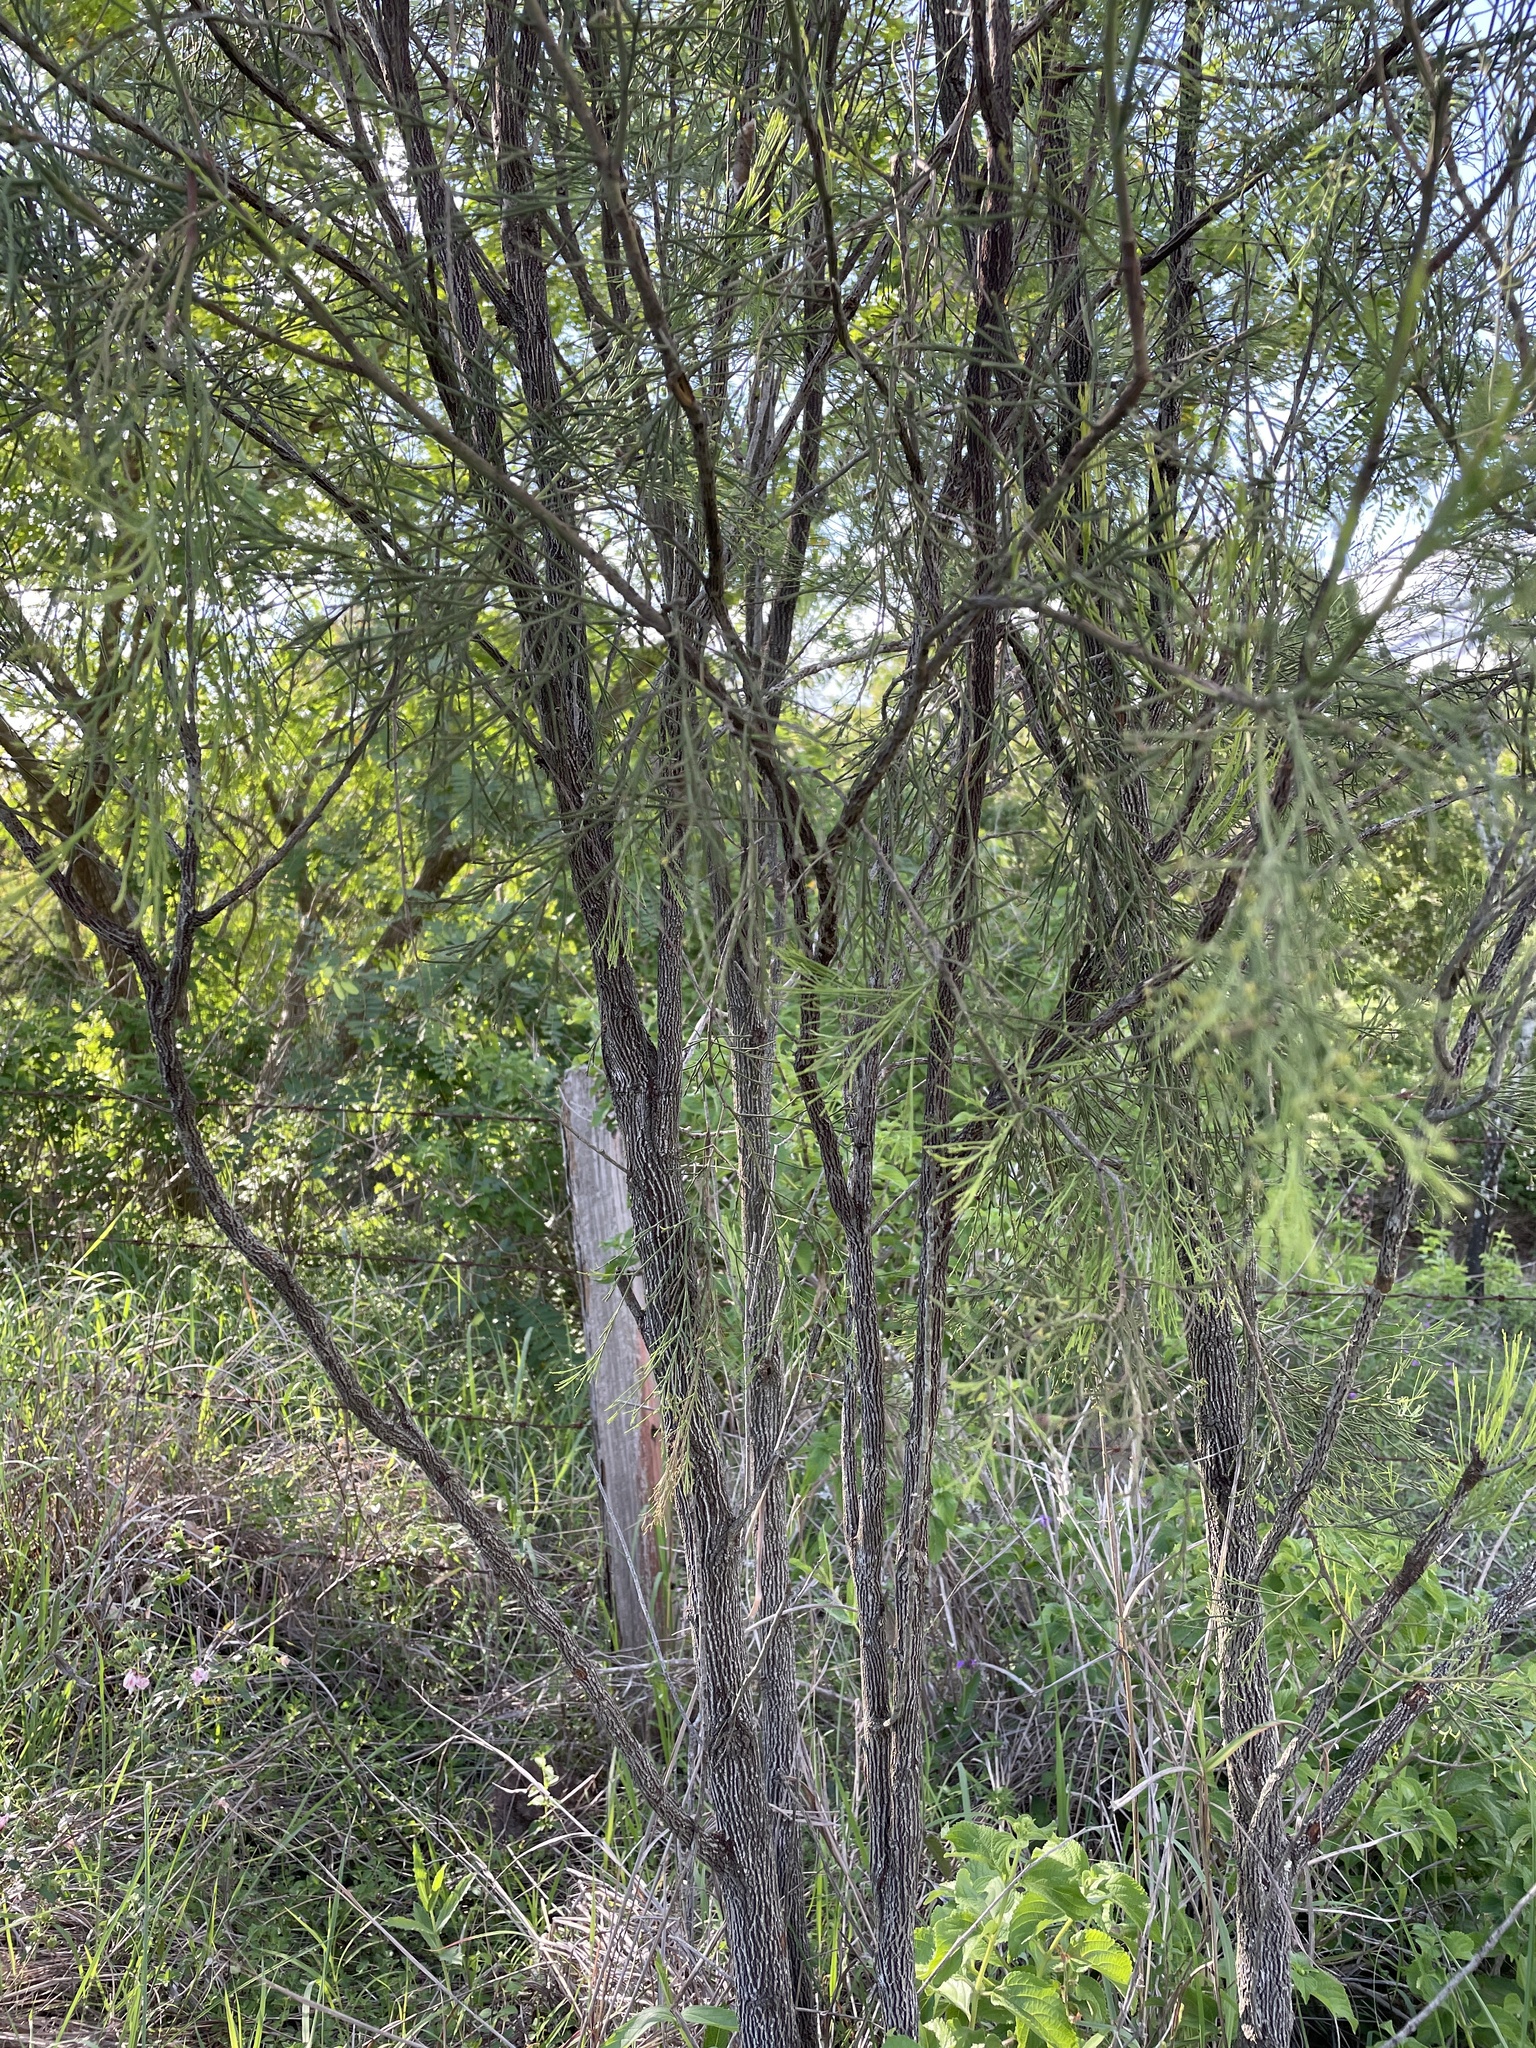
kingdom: Plantae
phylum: Tracheophyta
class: Magnoliopsida
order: Santalales
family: Santalaceae
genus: Exocarpos
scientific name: Exocarpos cupressiformis
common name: Cherry ballart
